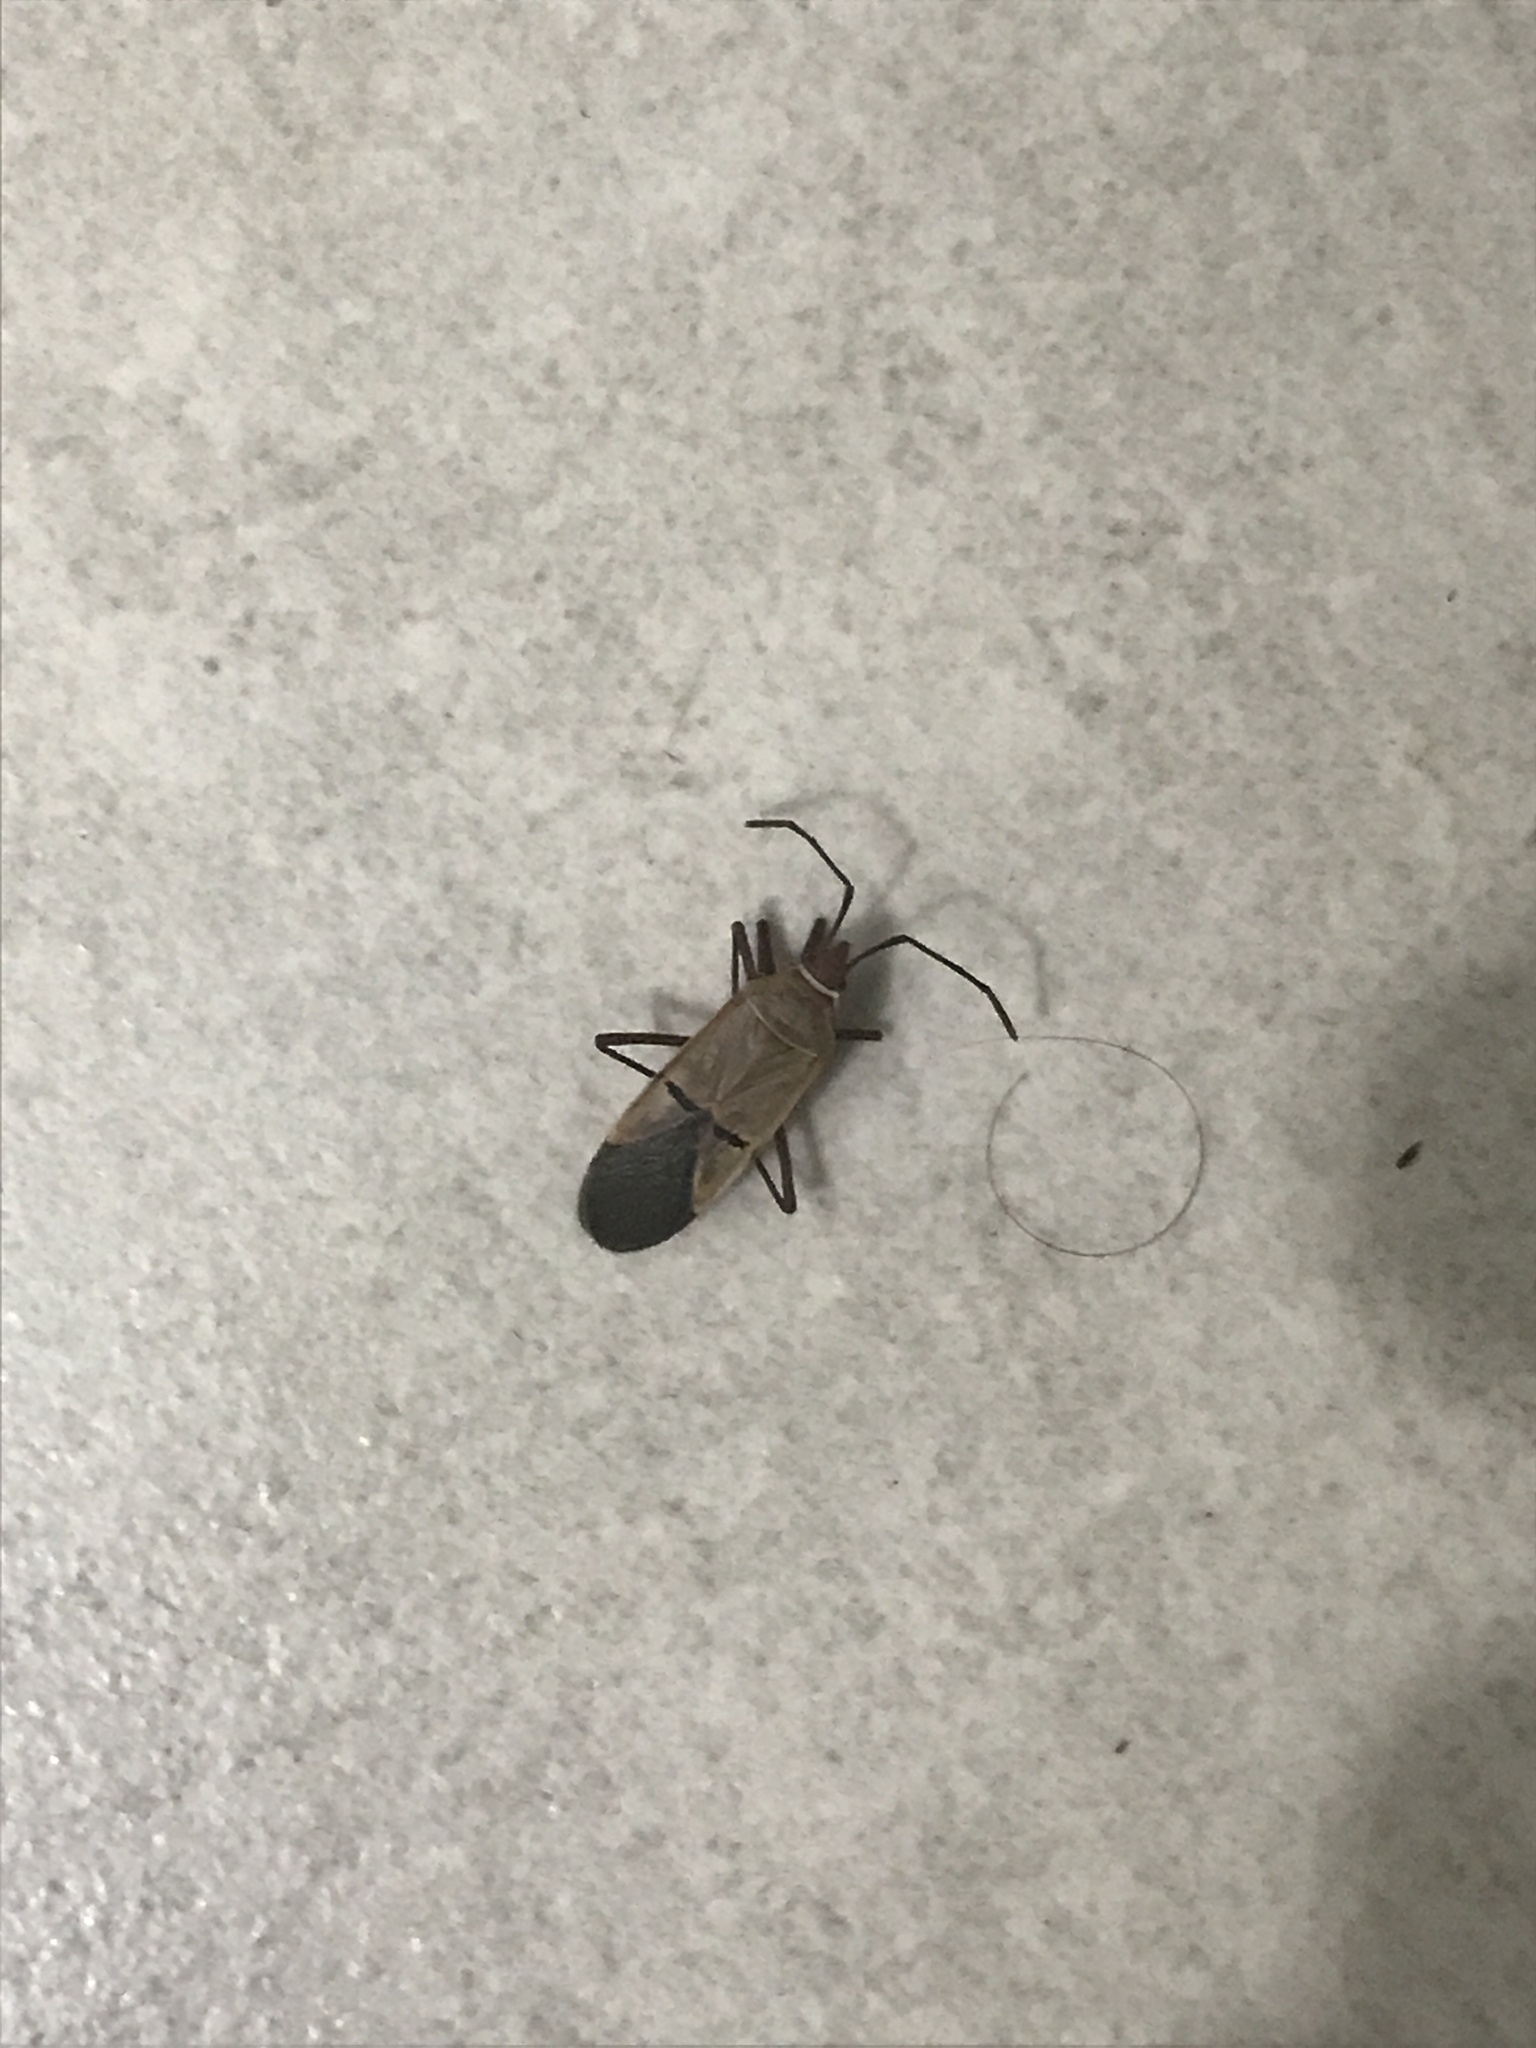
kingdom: Animalia
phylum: Arthropoda
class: Insecta
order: Hemiptera
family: Pyrrhocoridae
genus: Dysdercus
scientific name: Dysdercus
